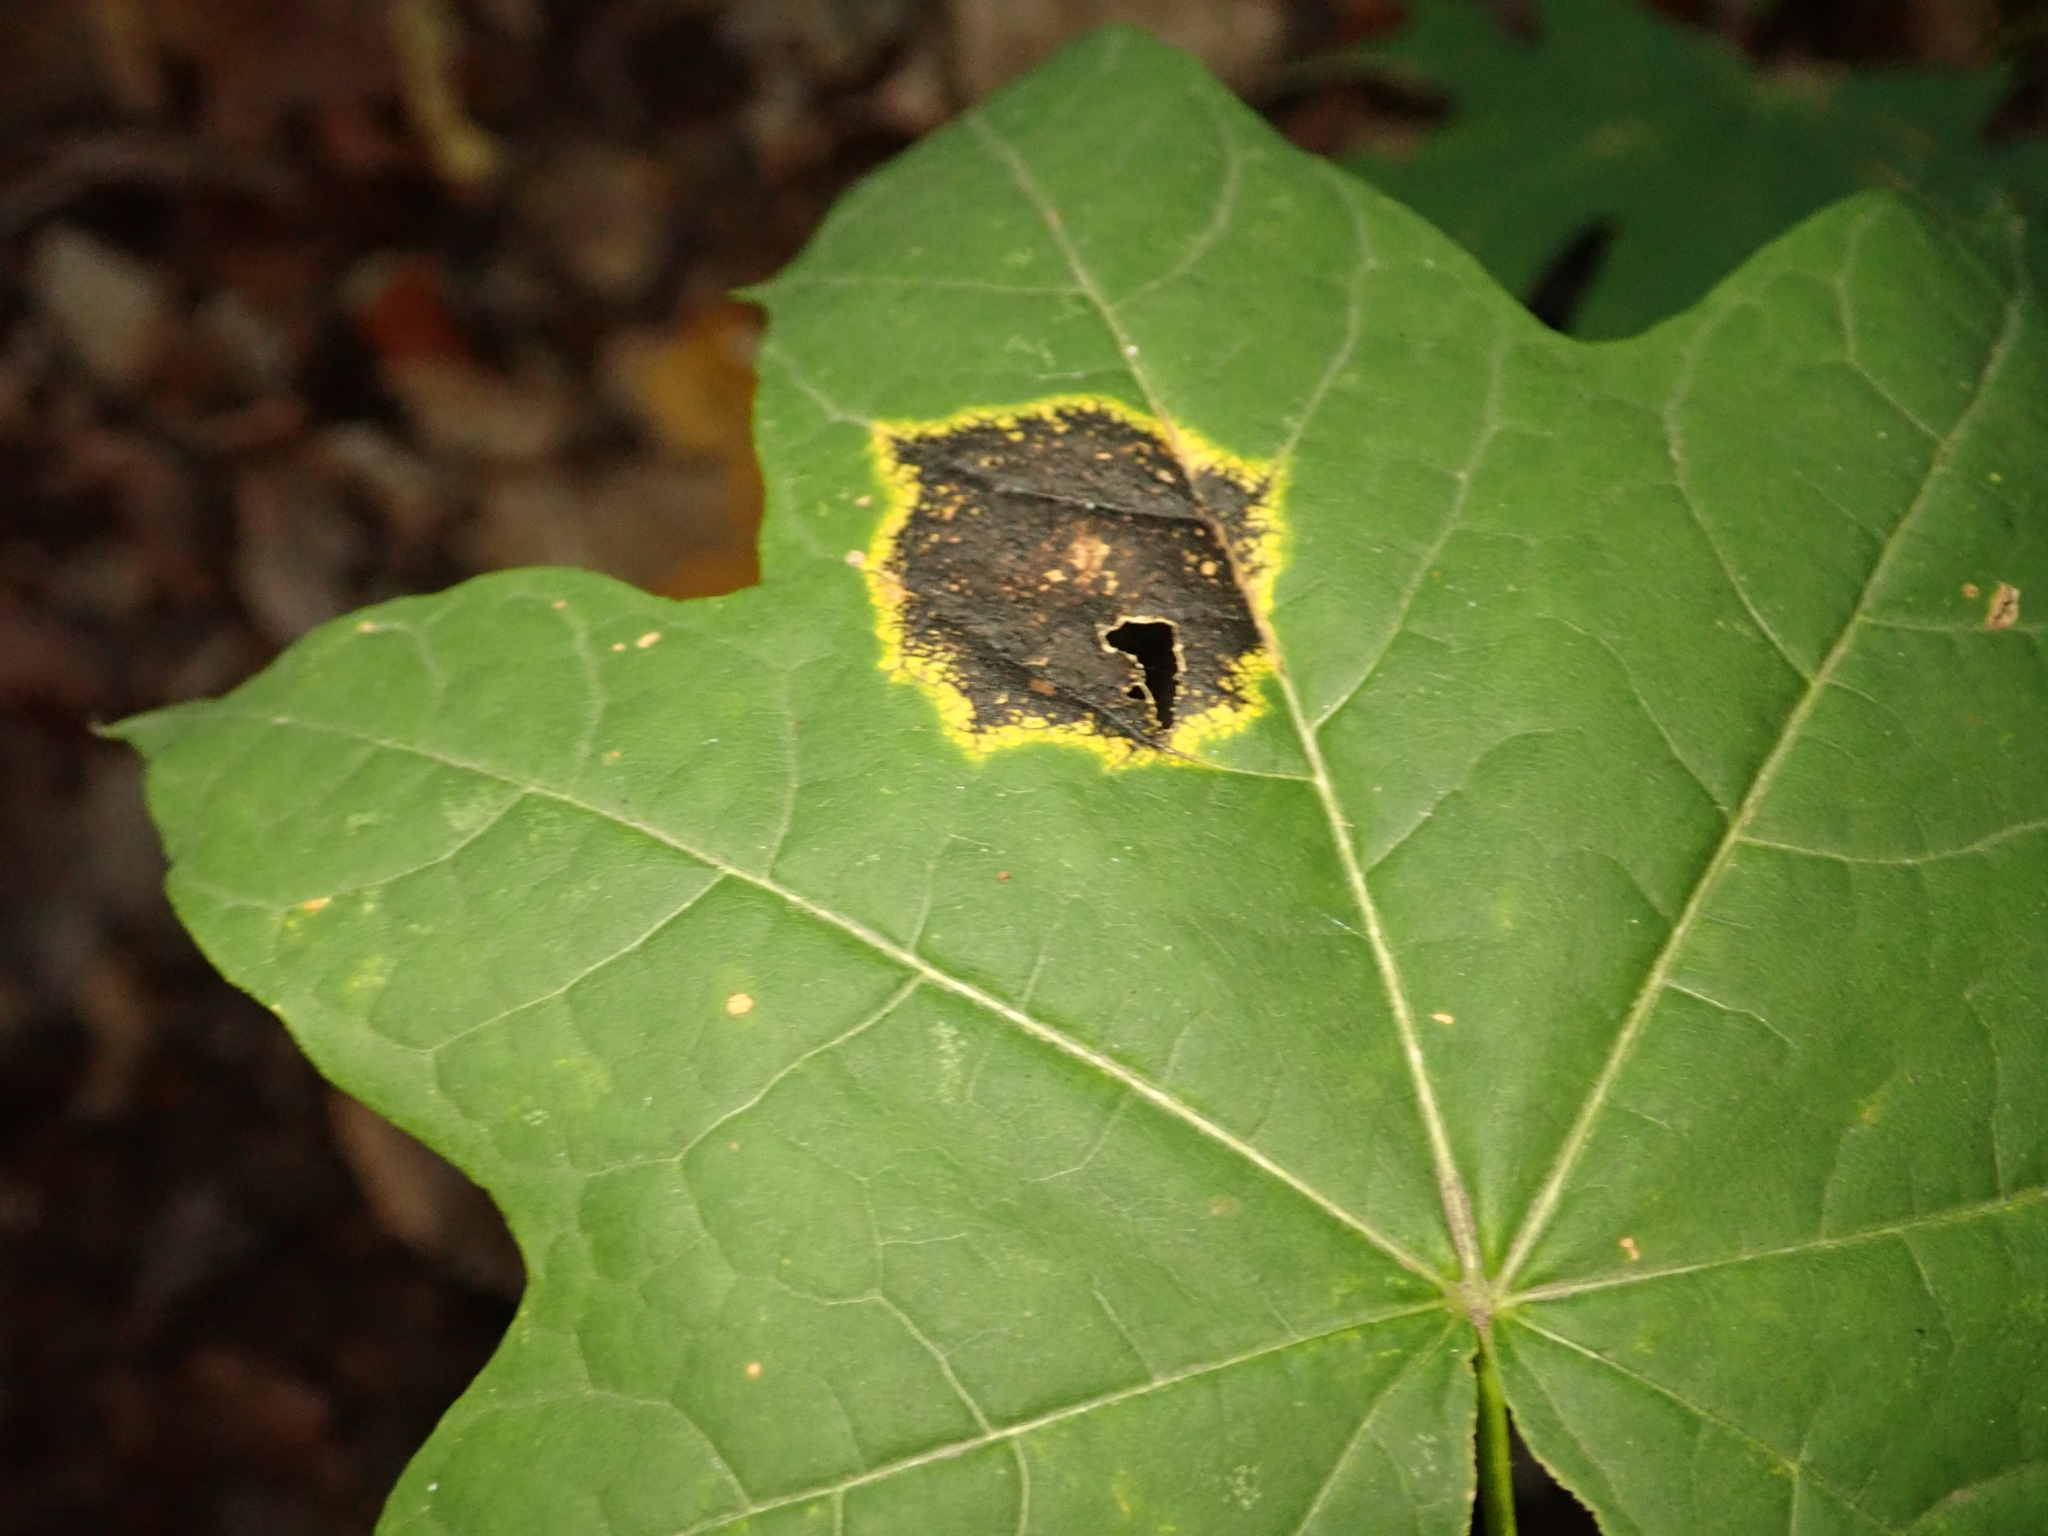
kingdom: Fungi
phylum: Ascomycota
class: Leotiomycetes
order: Rhytismatales
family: Rhytismataceae
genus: Rhytisma
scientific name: Rhytisma acerinum
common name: European tar spot
